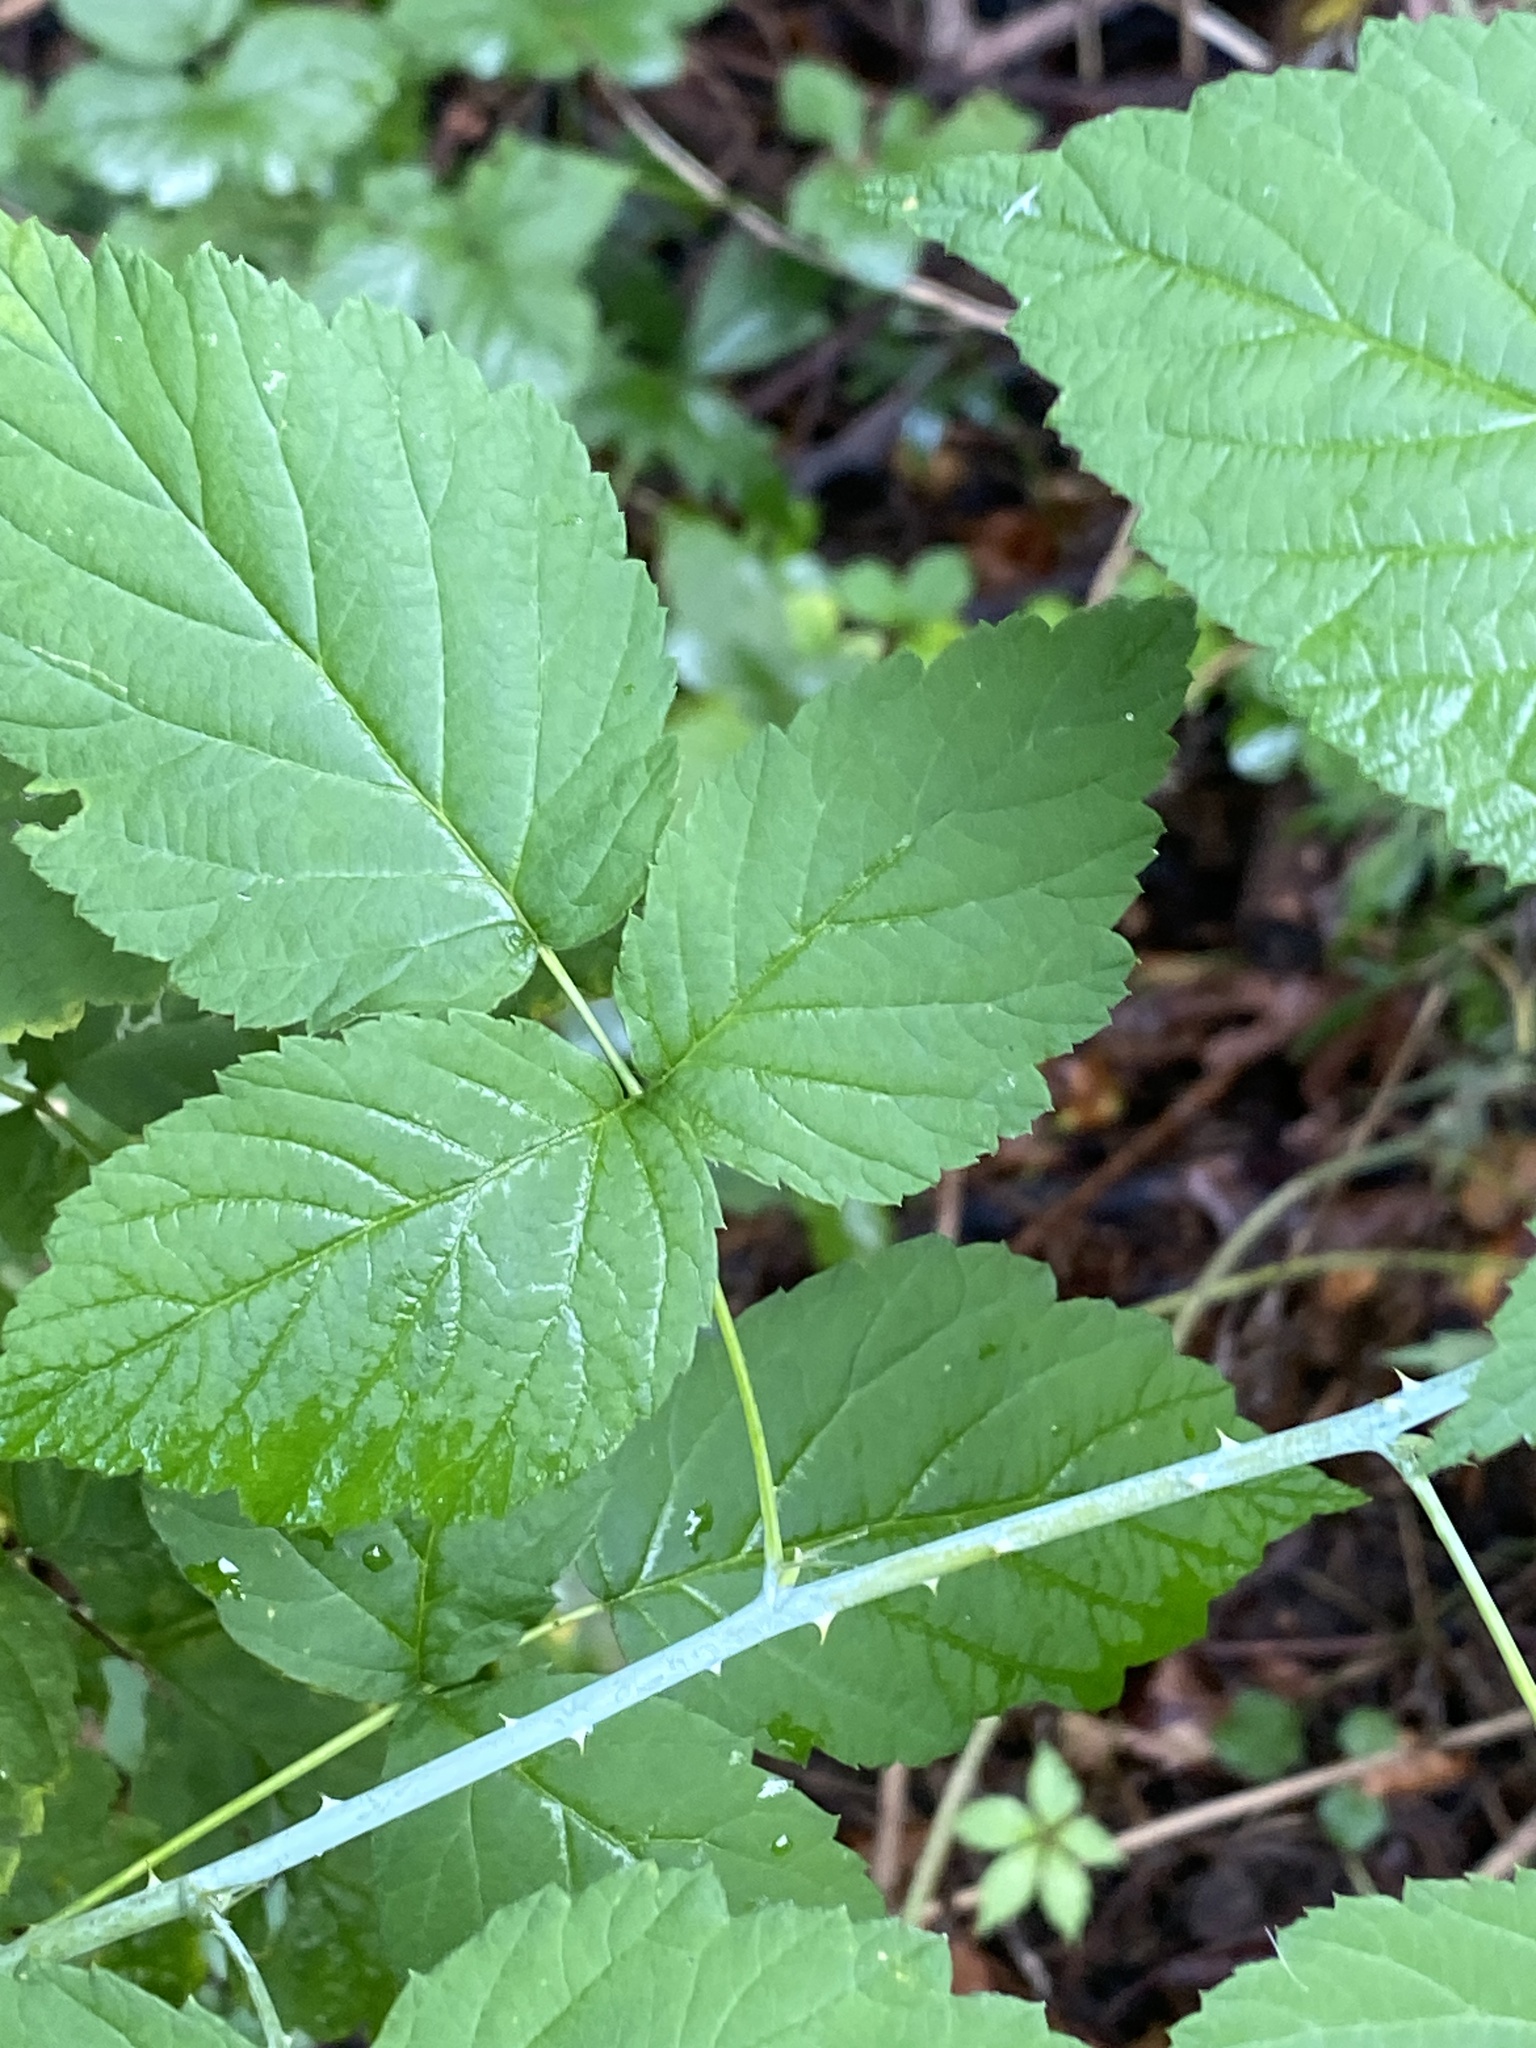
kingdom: Plantae
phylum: Tracheophyta
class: Magnoliopsida
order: Rosales
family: Rosaceae
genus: Rubus
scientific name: Rubus occidentalis
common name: Black raspberry
